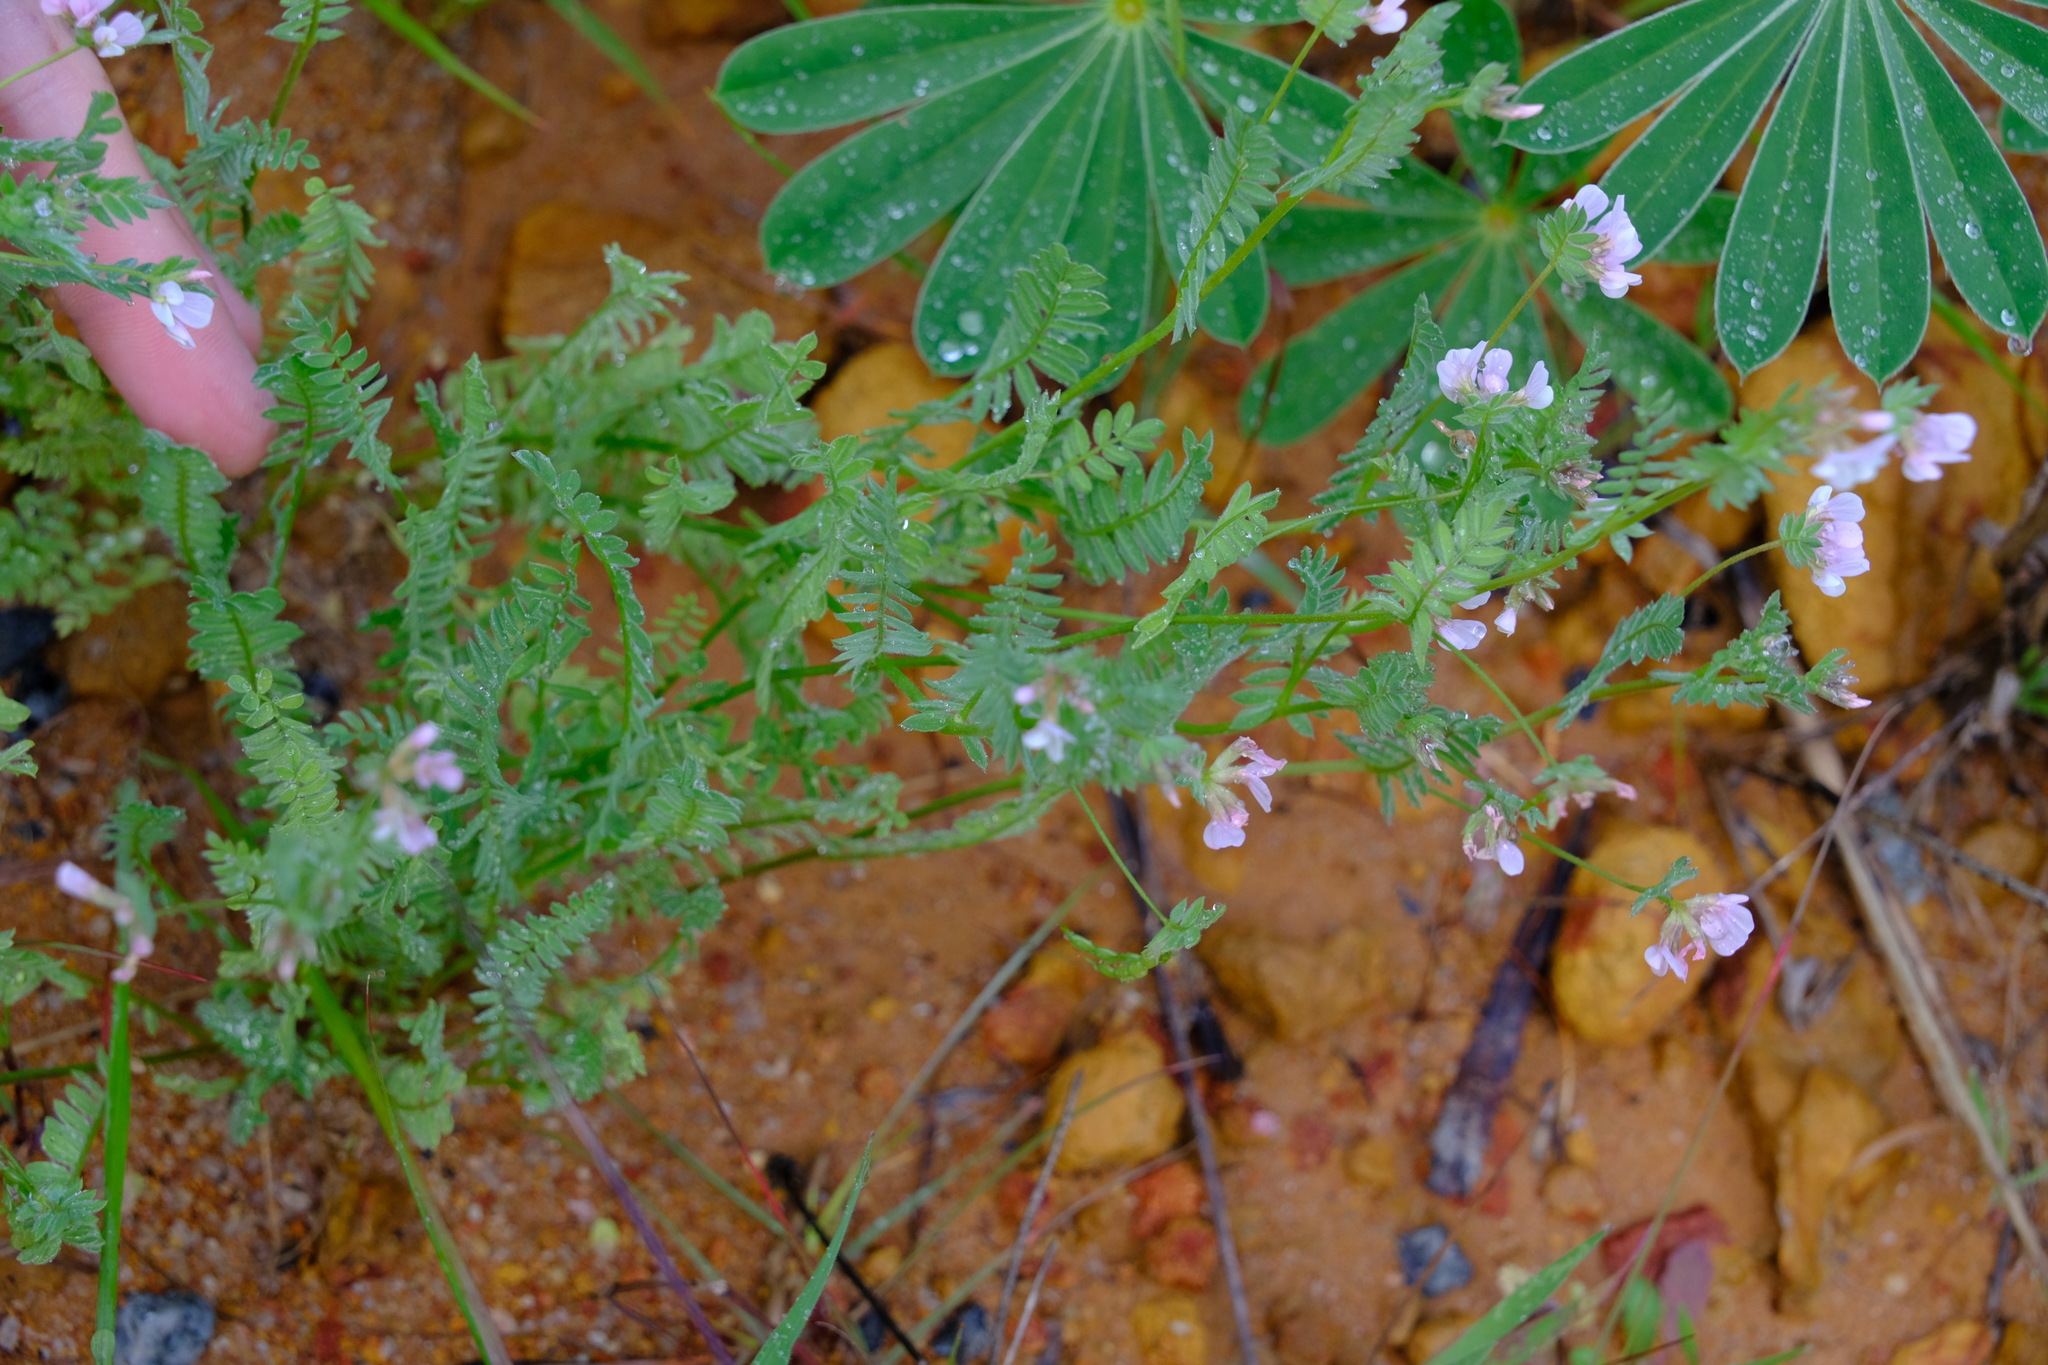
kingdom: Plantae
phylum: Tracheophyta
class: Magnoliopsida
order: Fabales
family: Fabaceae
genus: Ornithopus
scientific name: Ornithopus sativus
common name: Serradella
